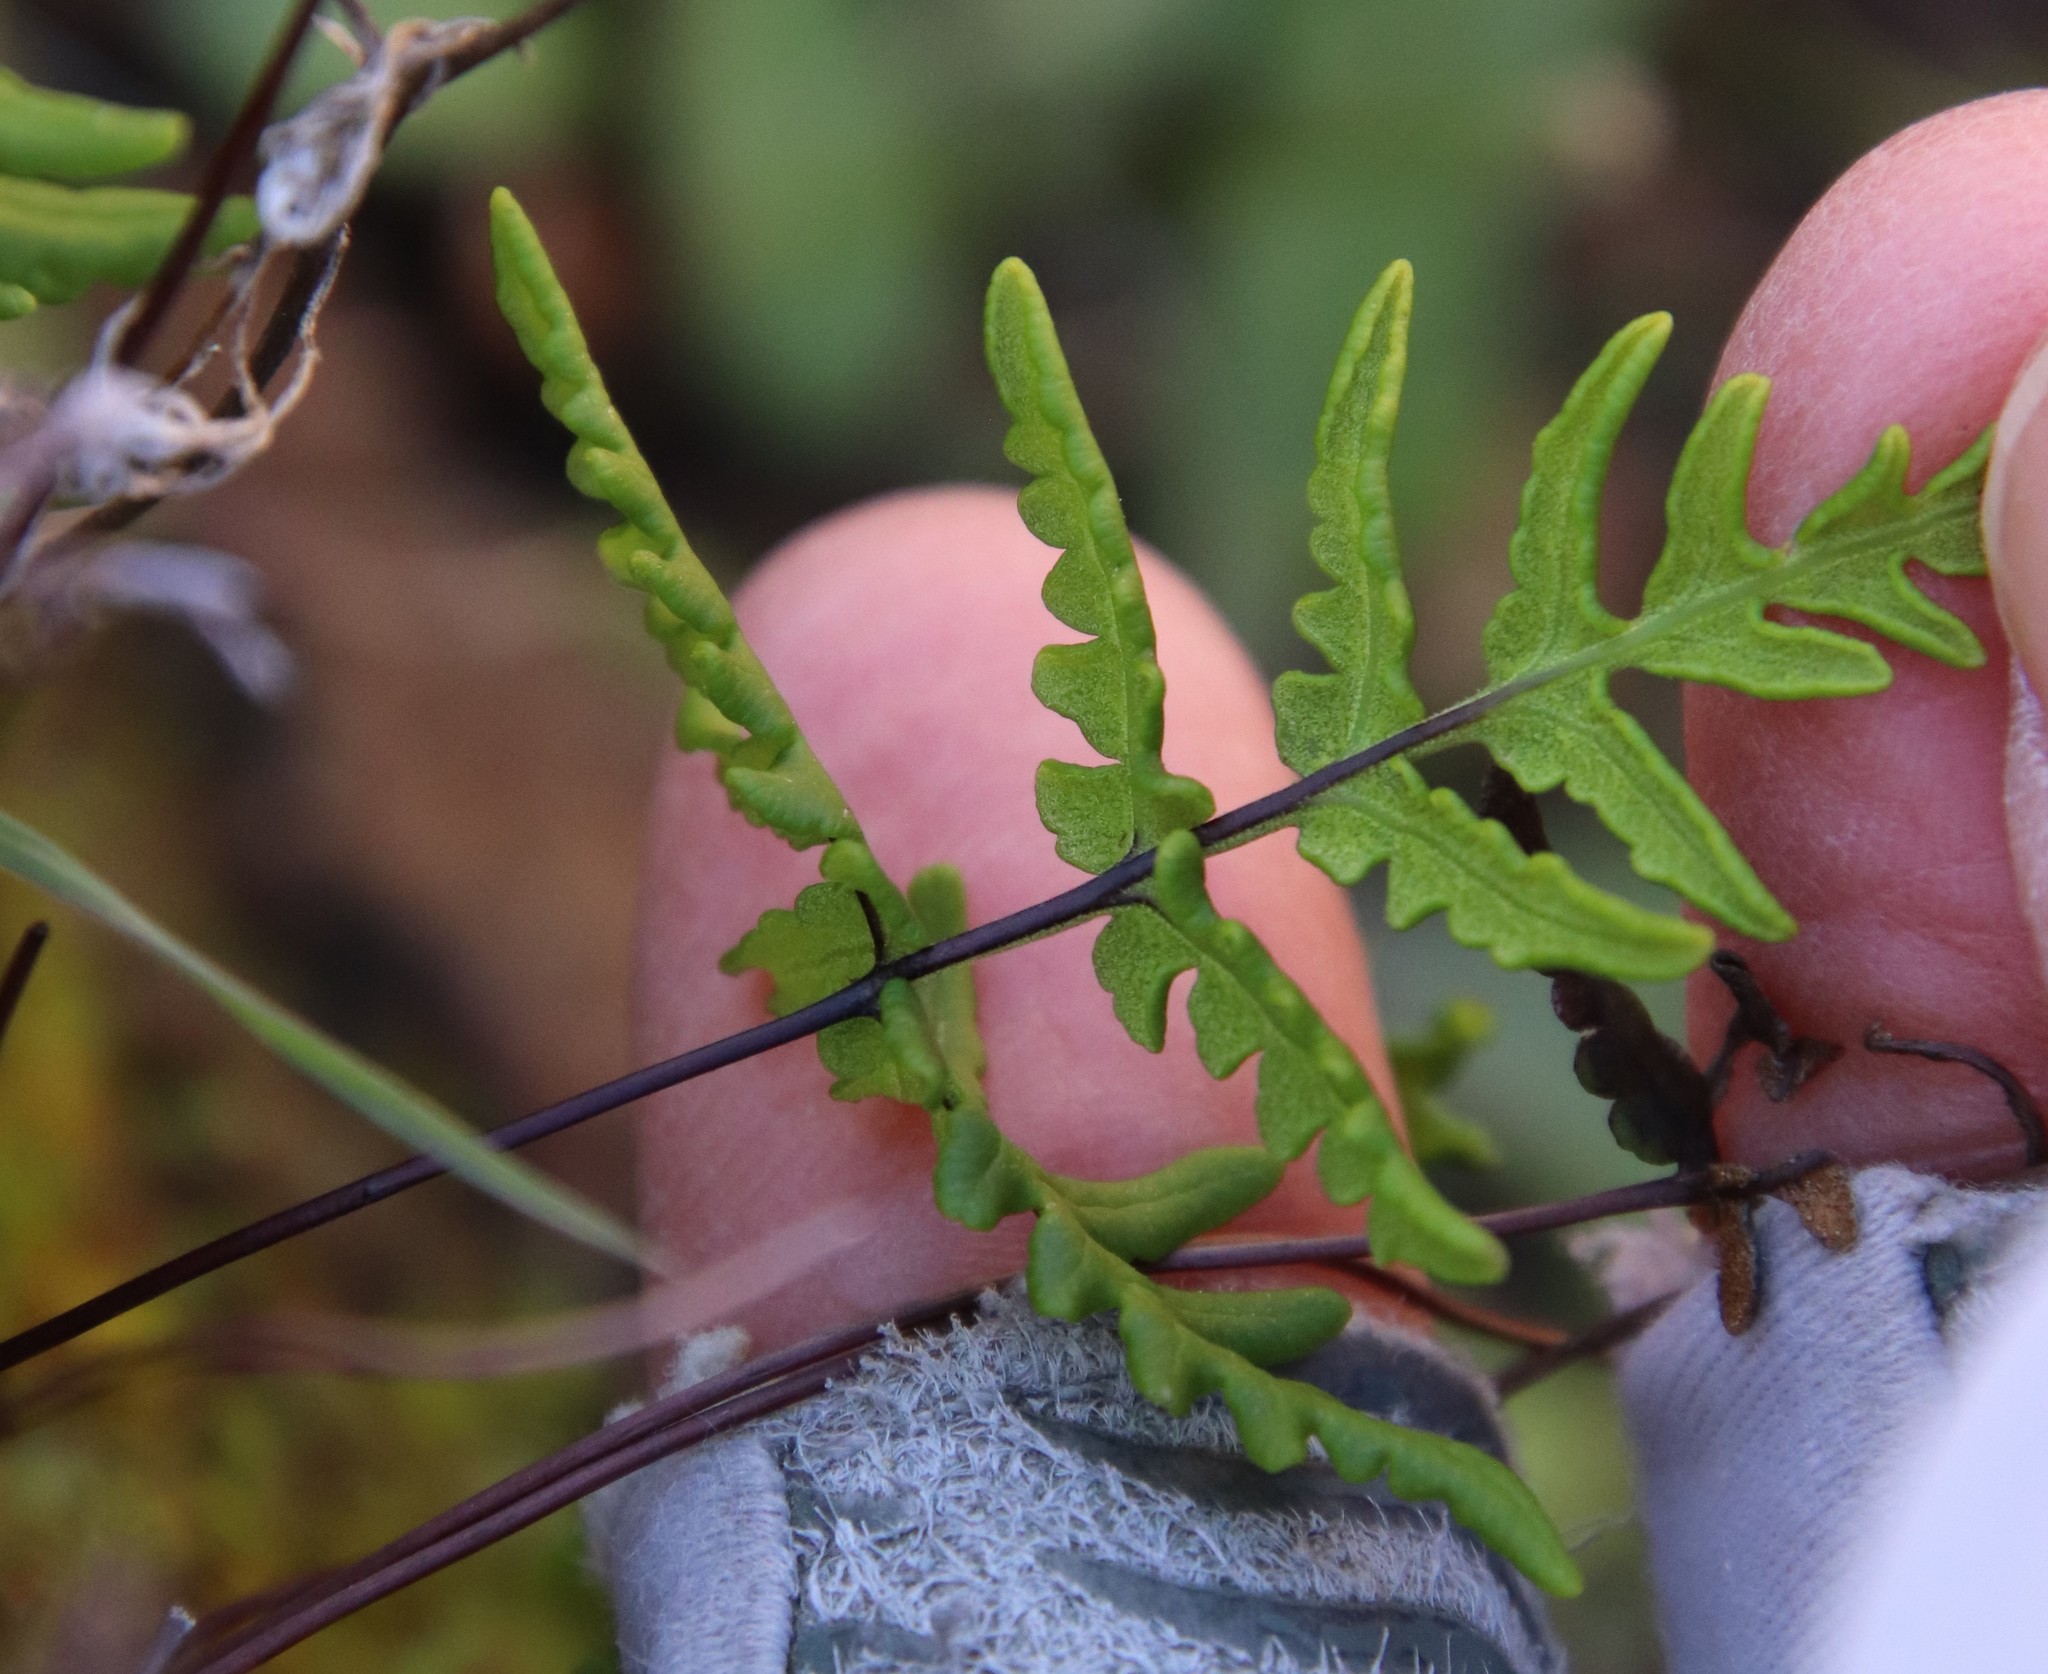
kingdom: Plantae
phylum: Tracheophyta
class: Polypodiopsida
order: Polypodiales
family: Pteridaceae
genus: Aspidotis
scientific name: Aspidotis californica
